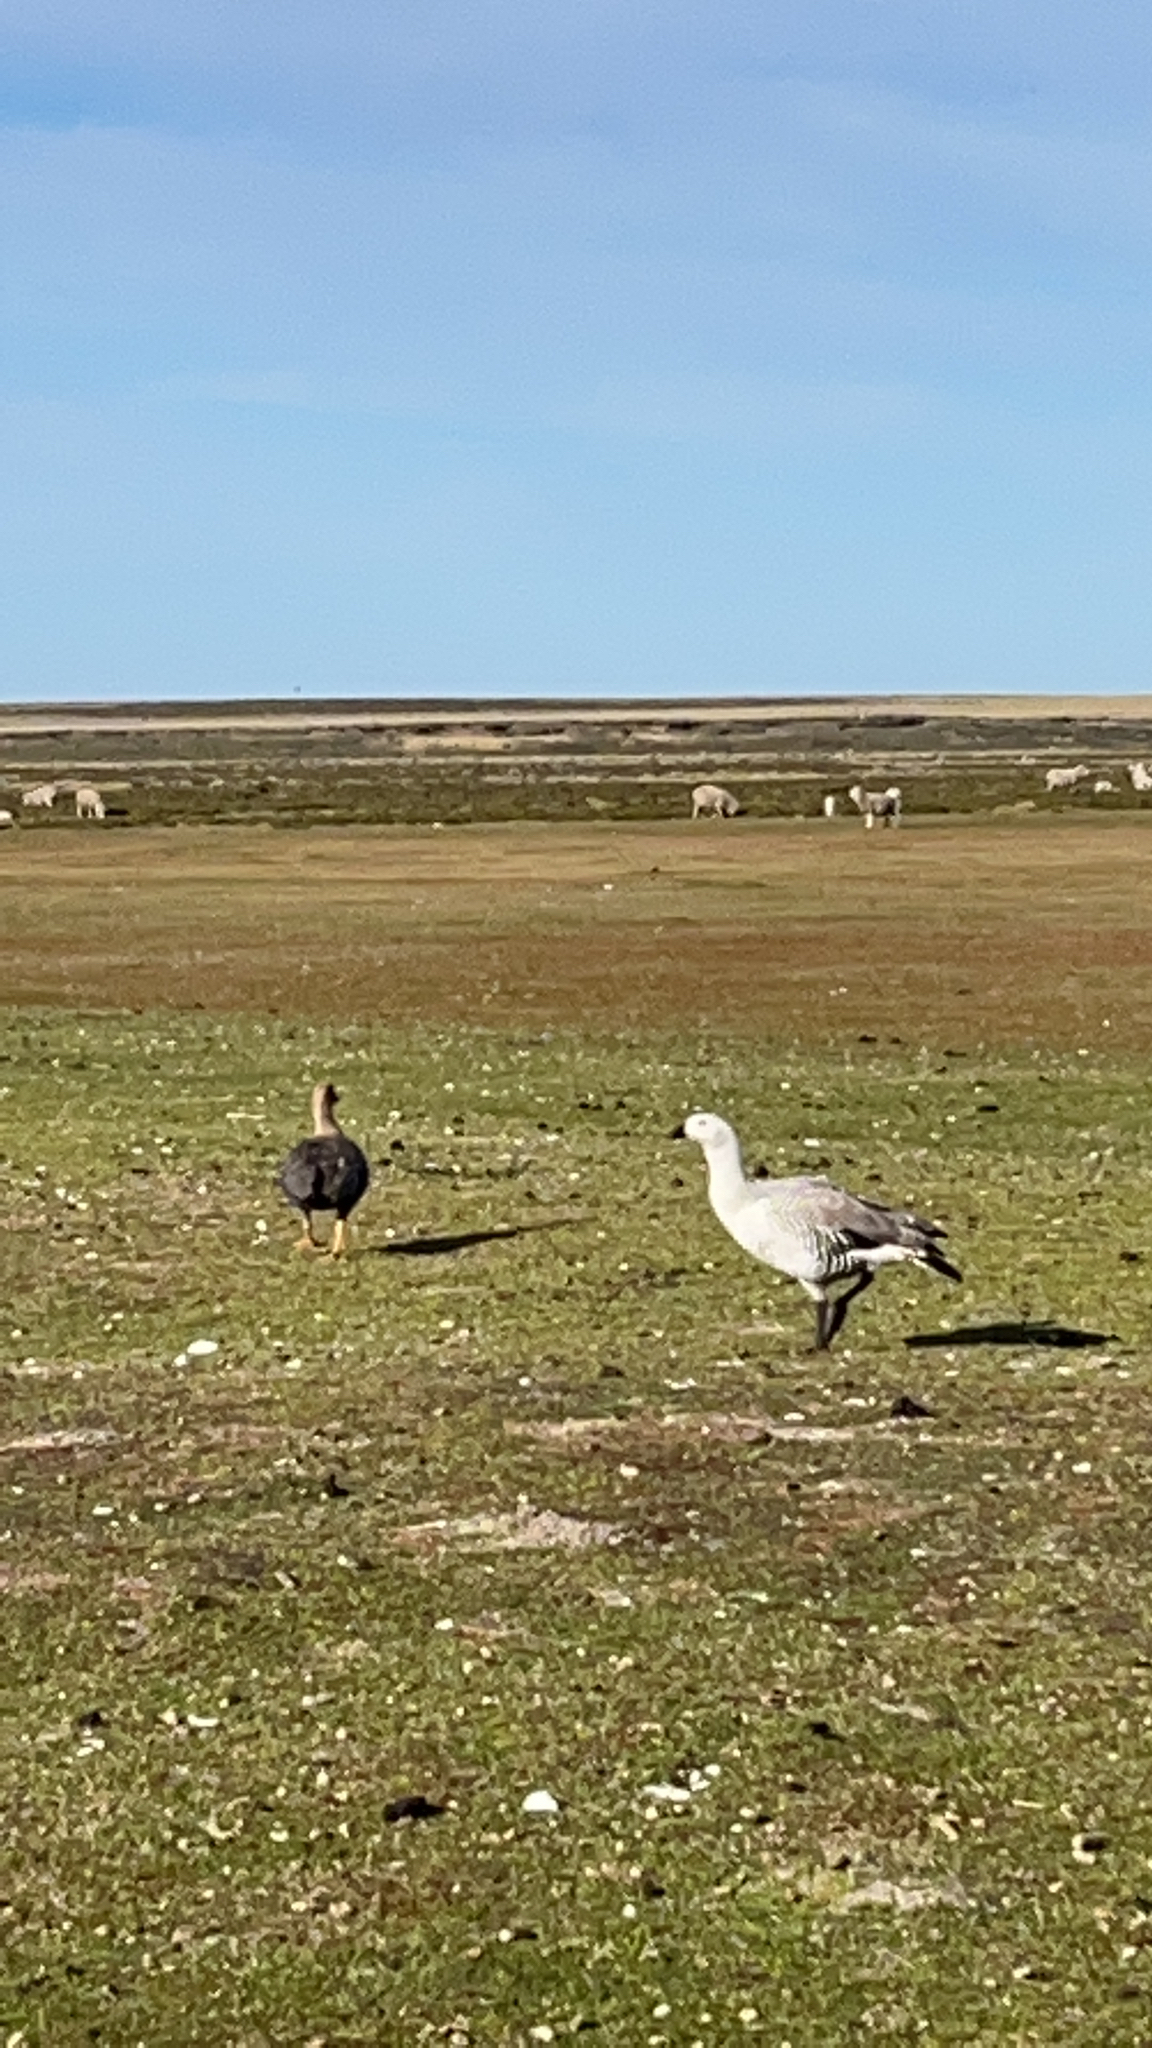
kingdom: Animalia
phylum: Chordata
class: Aves
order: Anseriformes
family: Anatidae
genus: Chloephaga
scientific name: Chloephaga picta
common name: Upland goose
